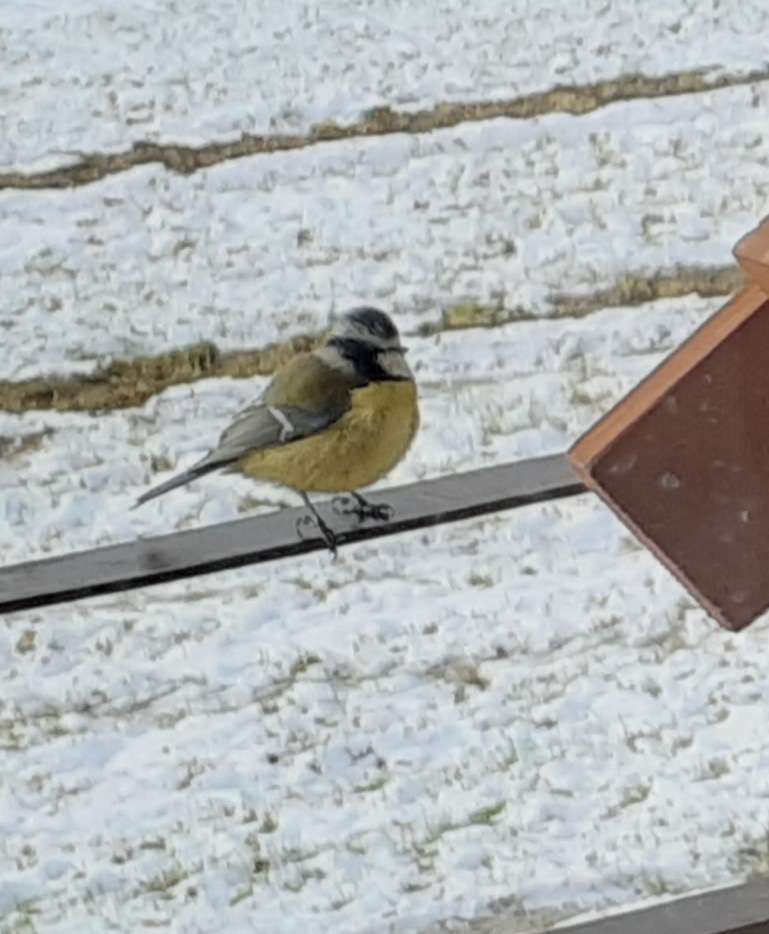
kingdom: Animalia
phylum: Chordata
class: Aves
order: Passeriformes
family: Paridae
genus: Cyanistes
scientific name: Cyanistes caeruleus
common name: Eurasian blue tit
